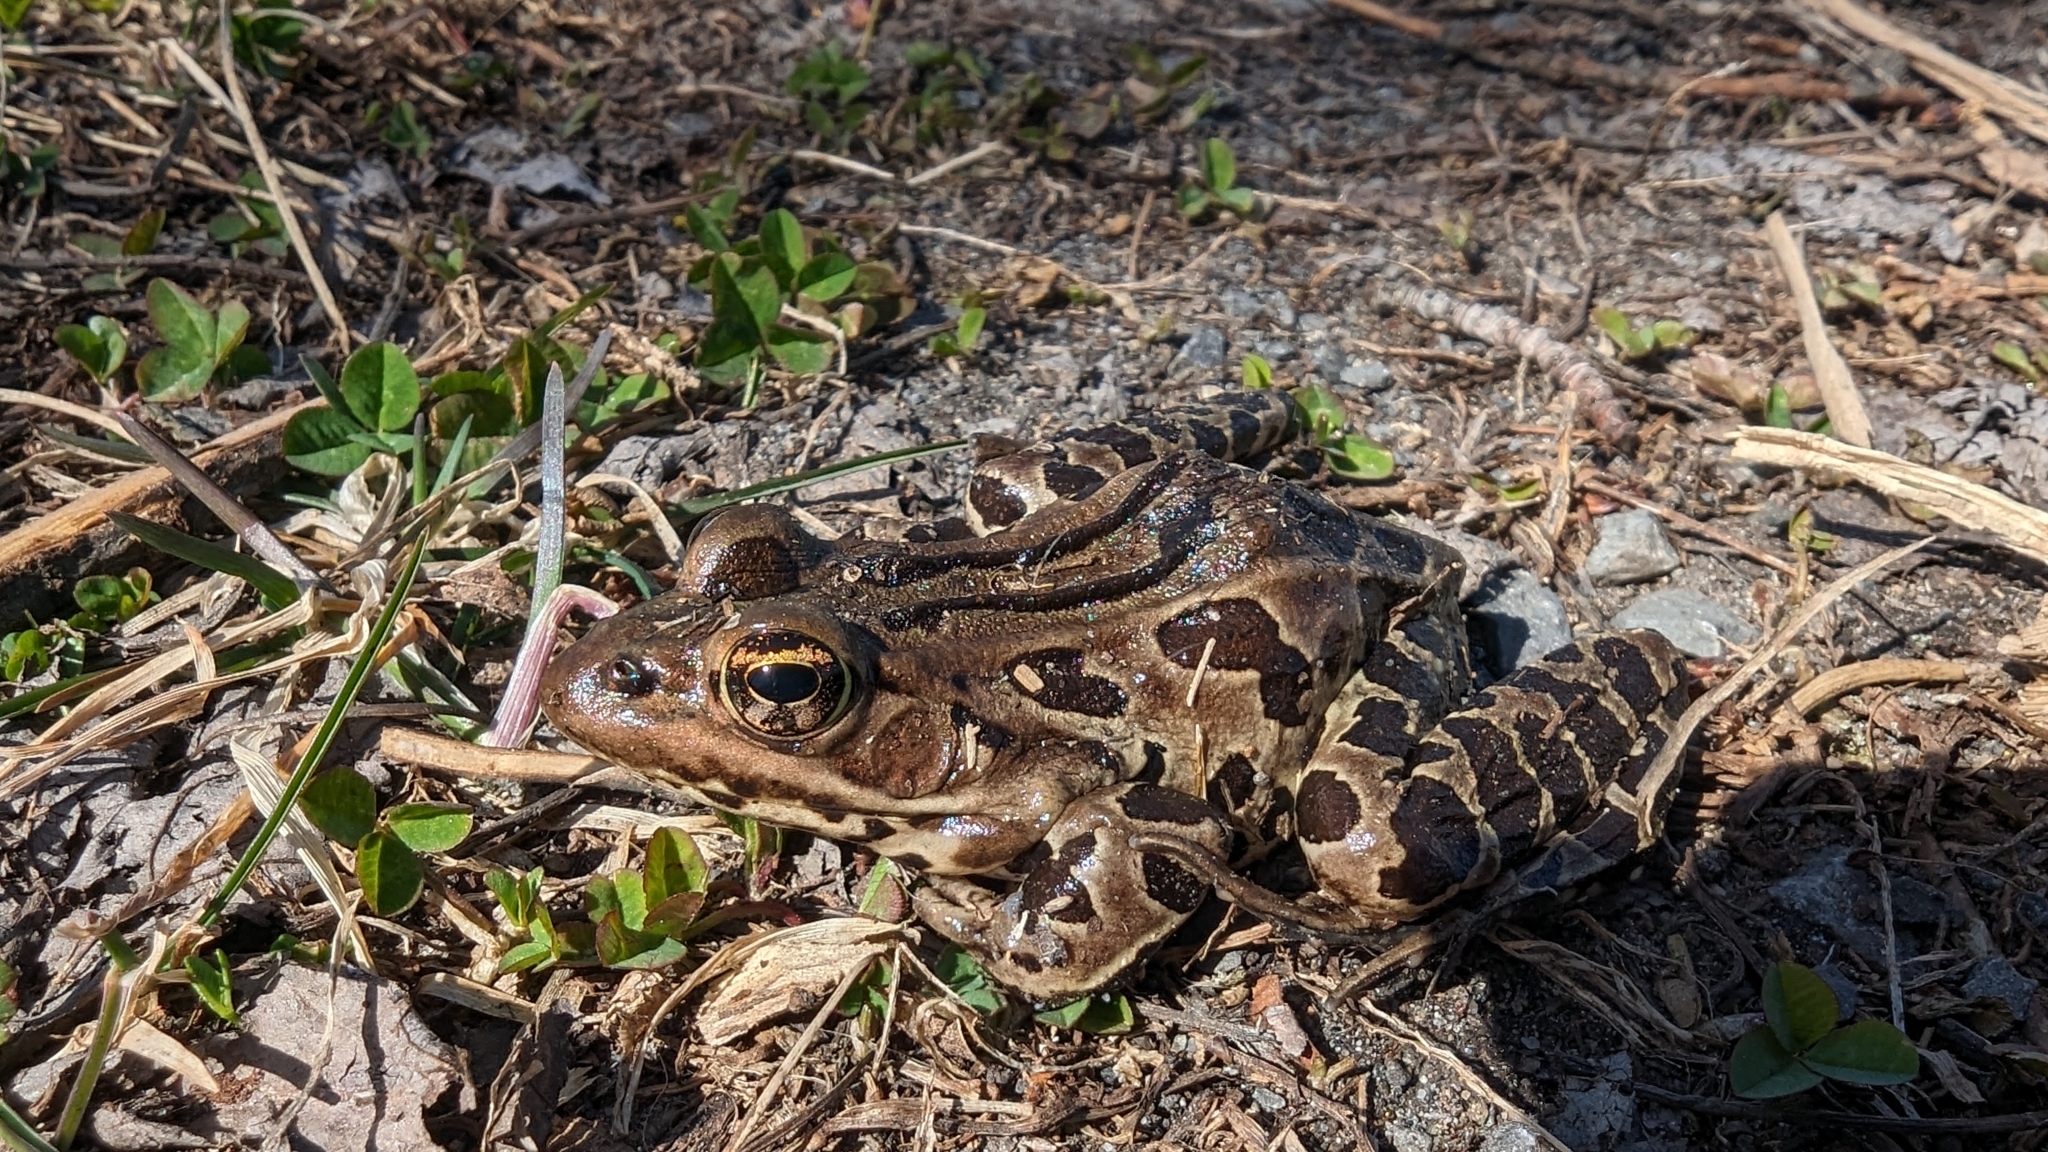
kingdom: Animalia
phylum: Chordata
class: Amphibia
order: Anura
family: Ranidae
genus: Lithobates
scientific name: Lithobates pipiens
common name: Northern leopard frog
